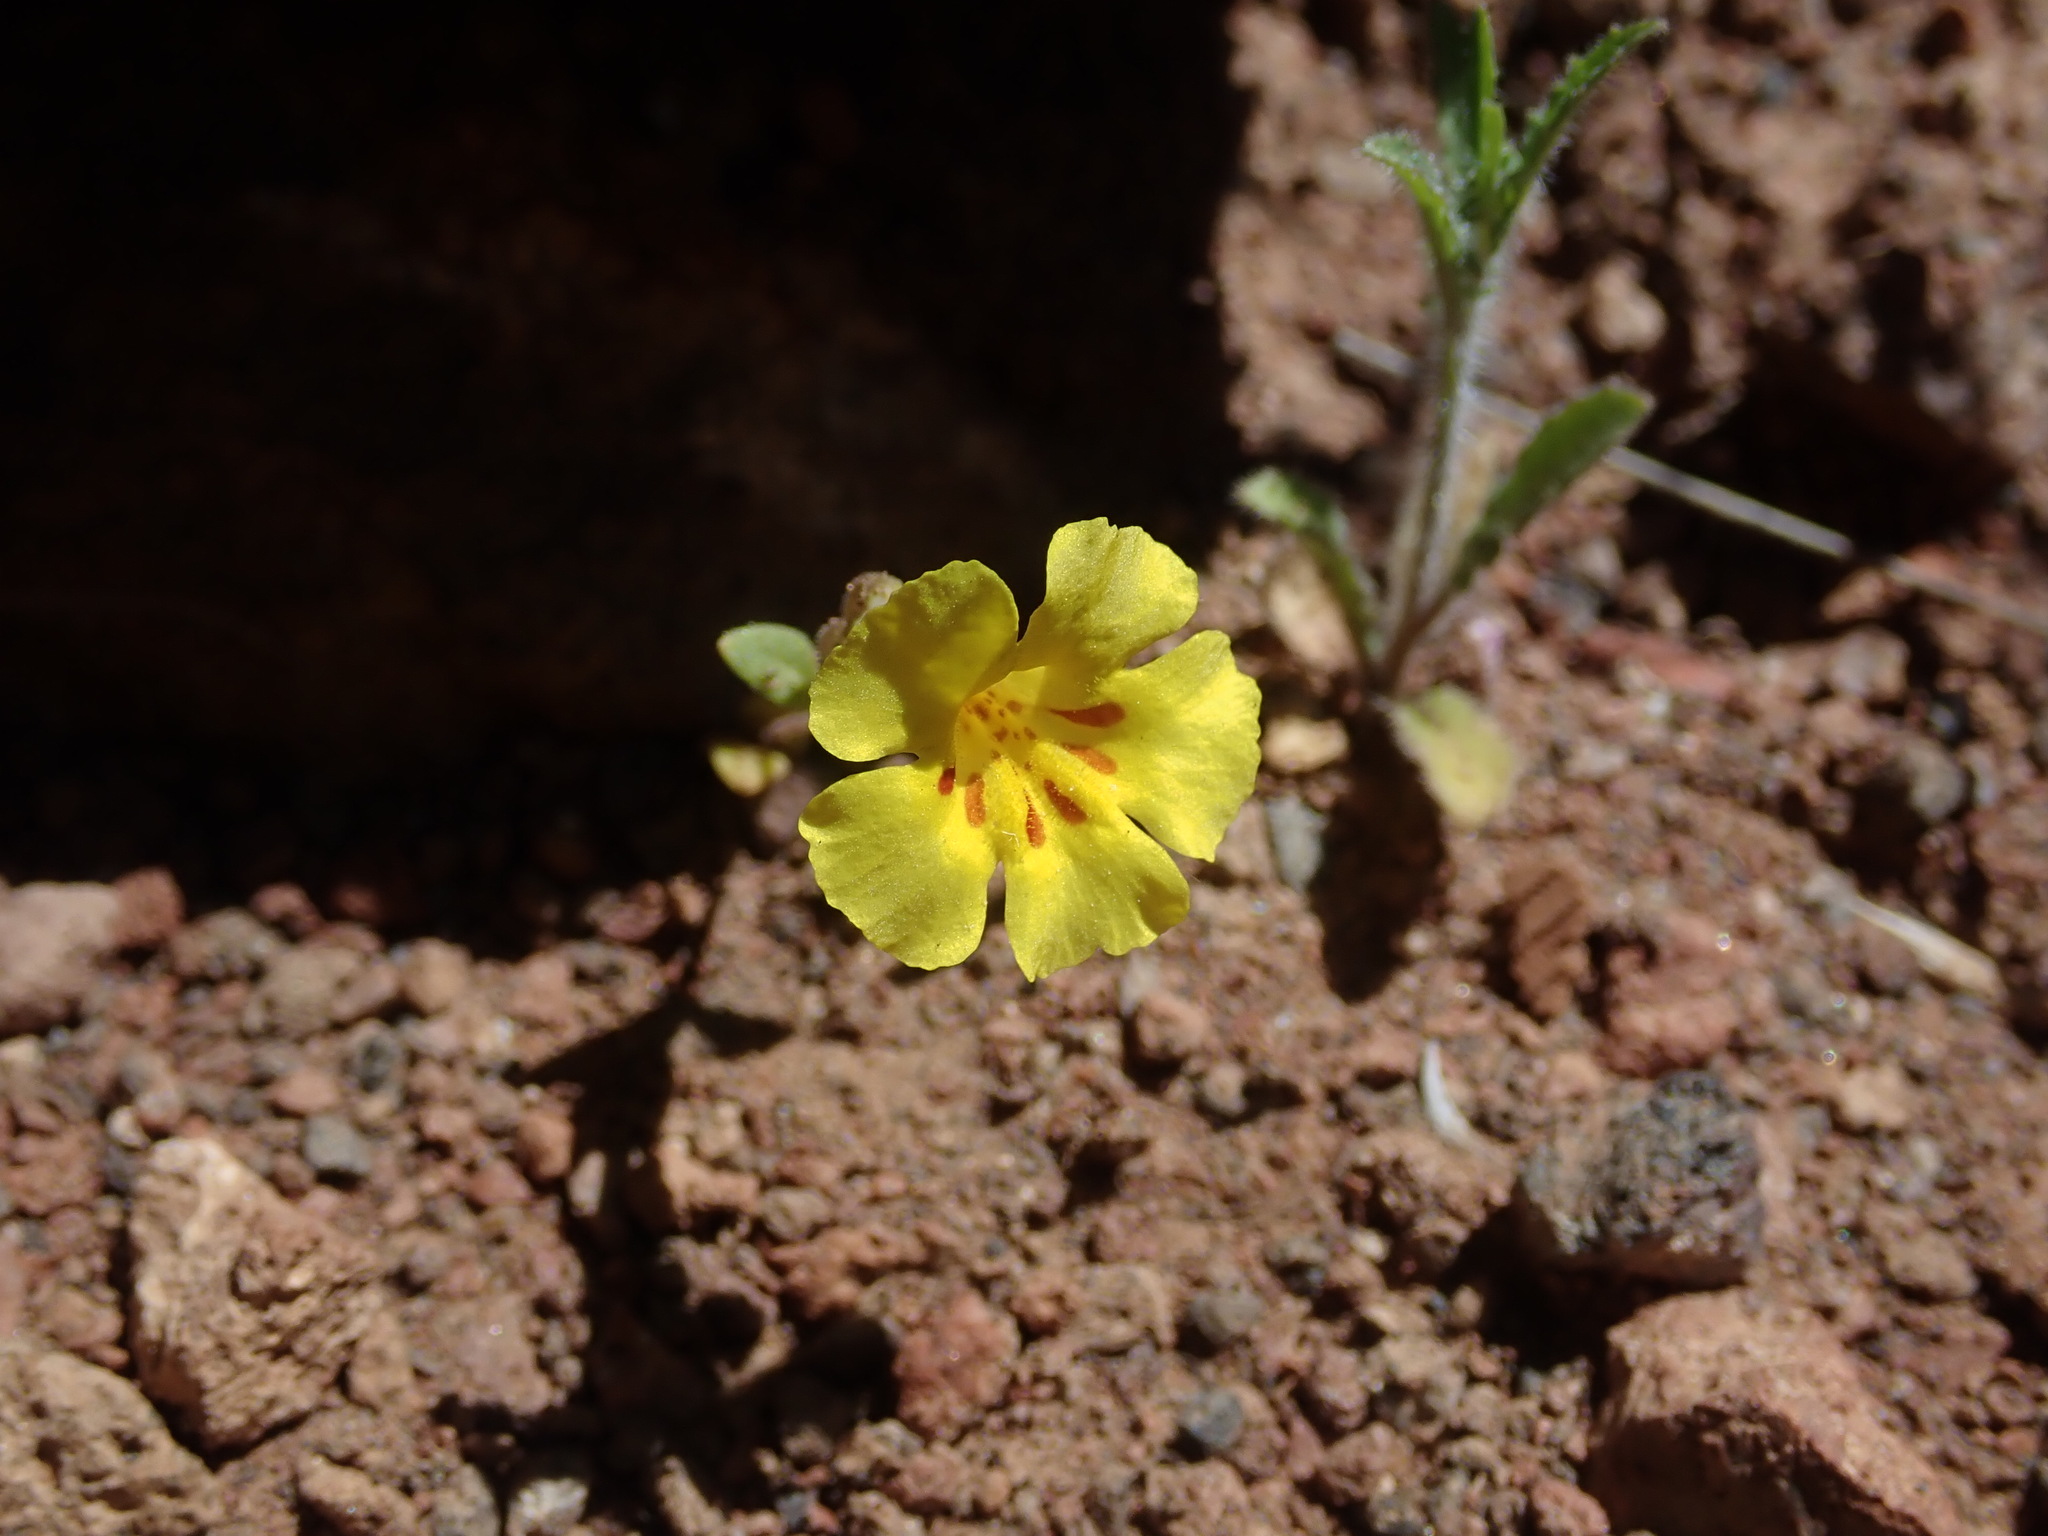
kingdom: Plantae
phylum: Tracheophyta
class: Magnoliopsida
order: Lamiales
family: Phrymaceae
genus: Diplacus
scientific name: Diplacus parryi
